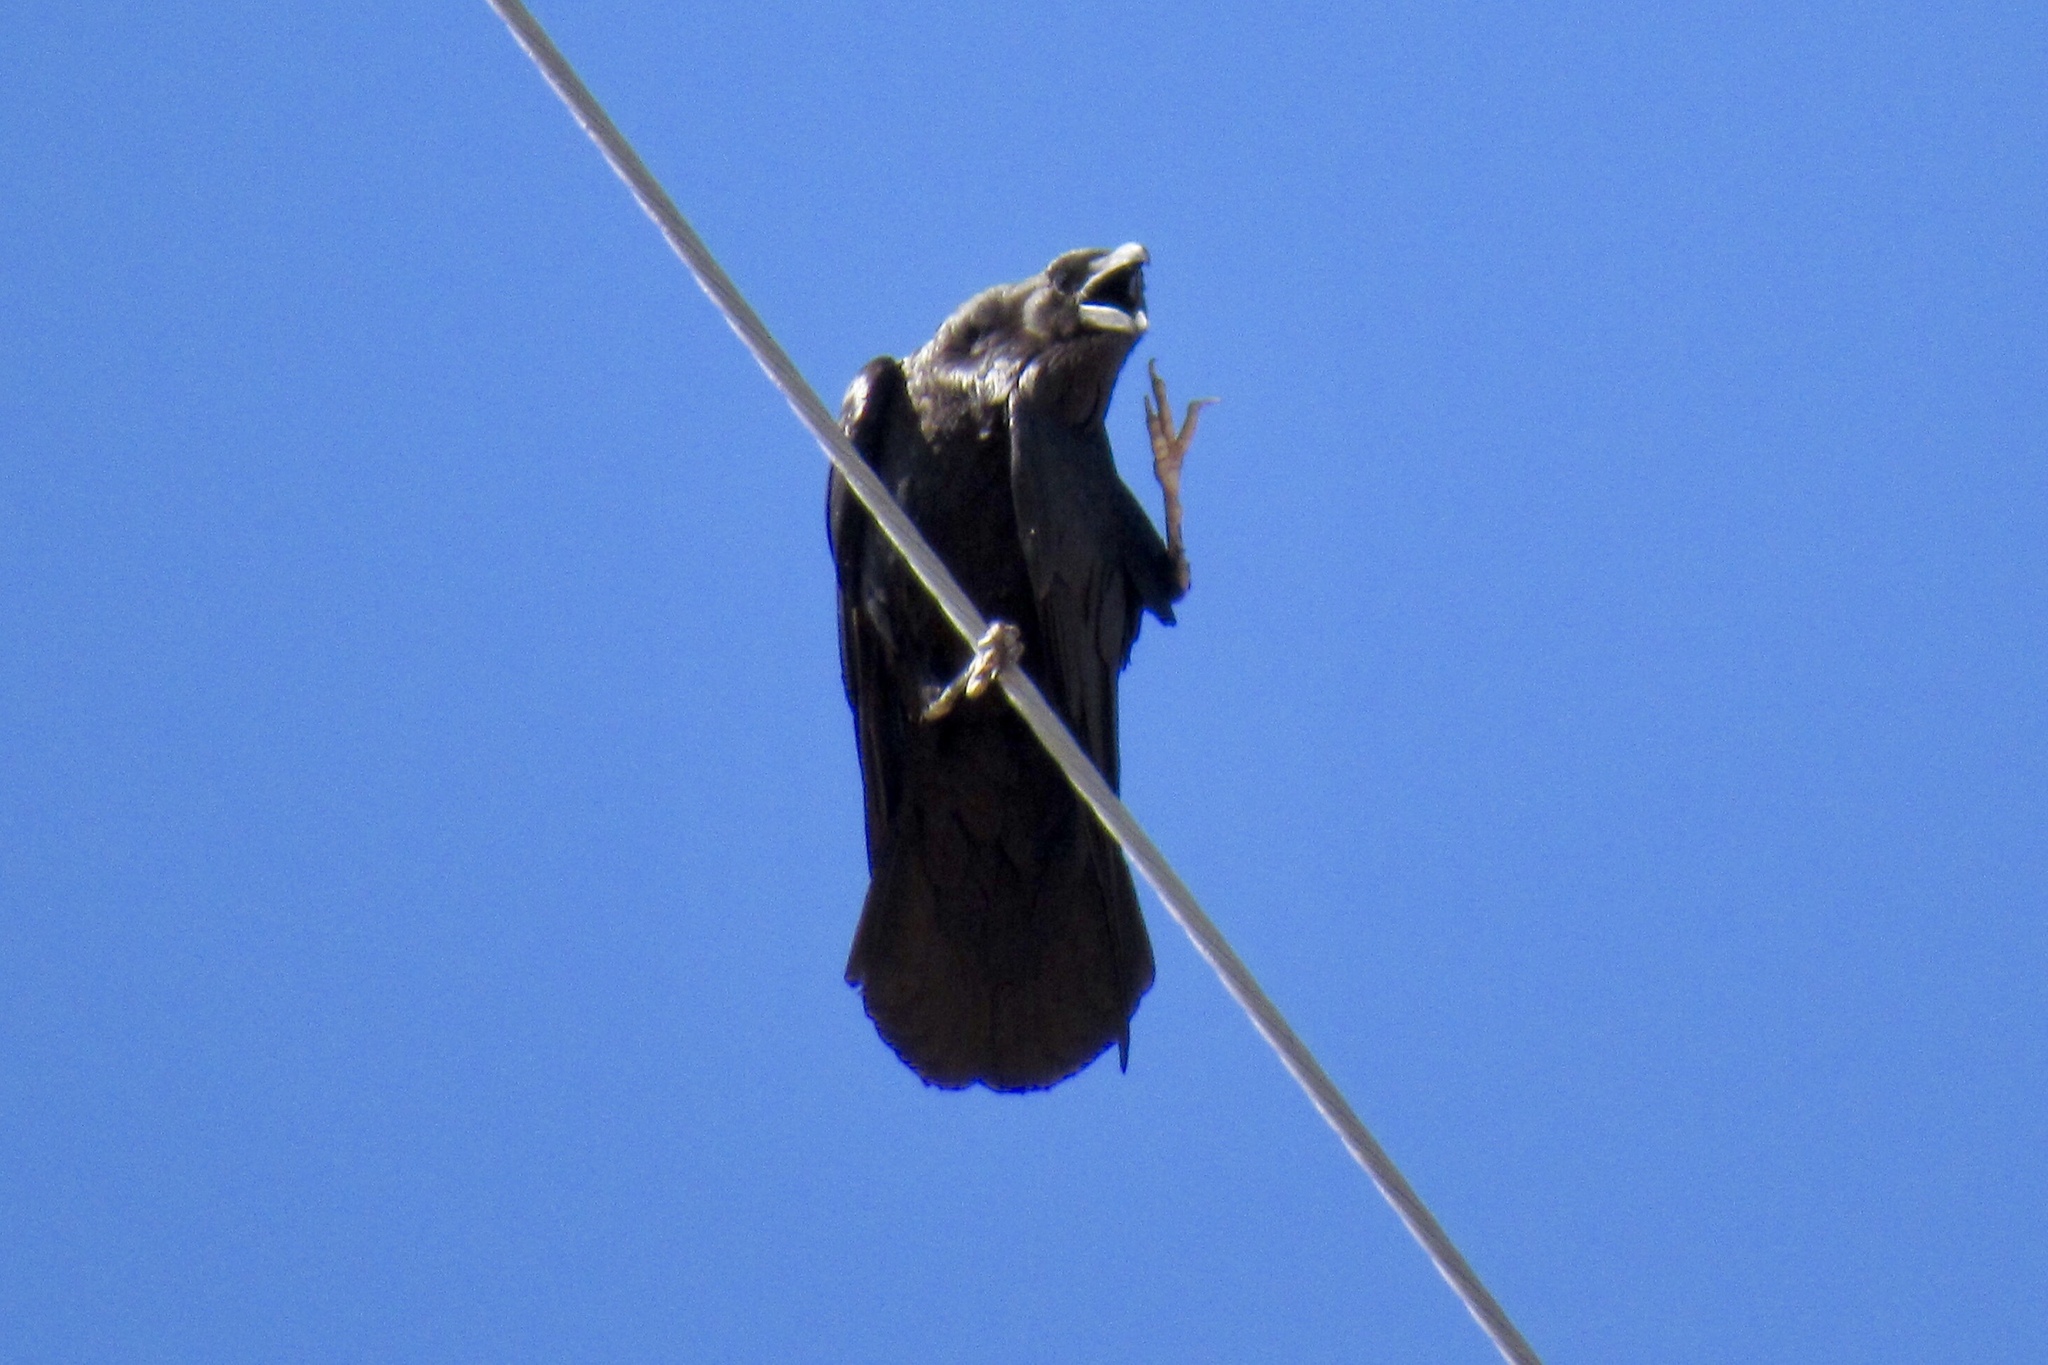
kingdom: Animalia
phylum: Chordata
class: Aves
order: Passeriformes
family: Corvidae
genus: Corvus
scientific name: Corvus corax
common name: Common raven
